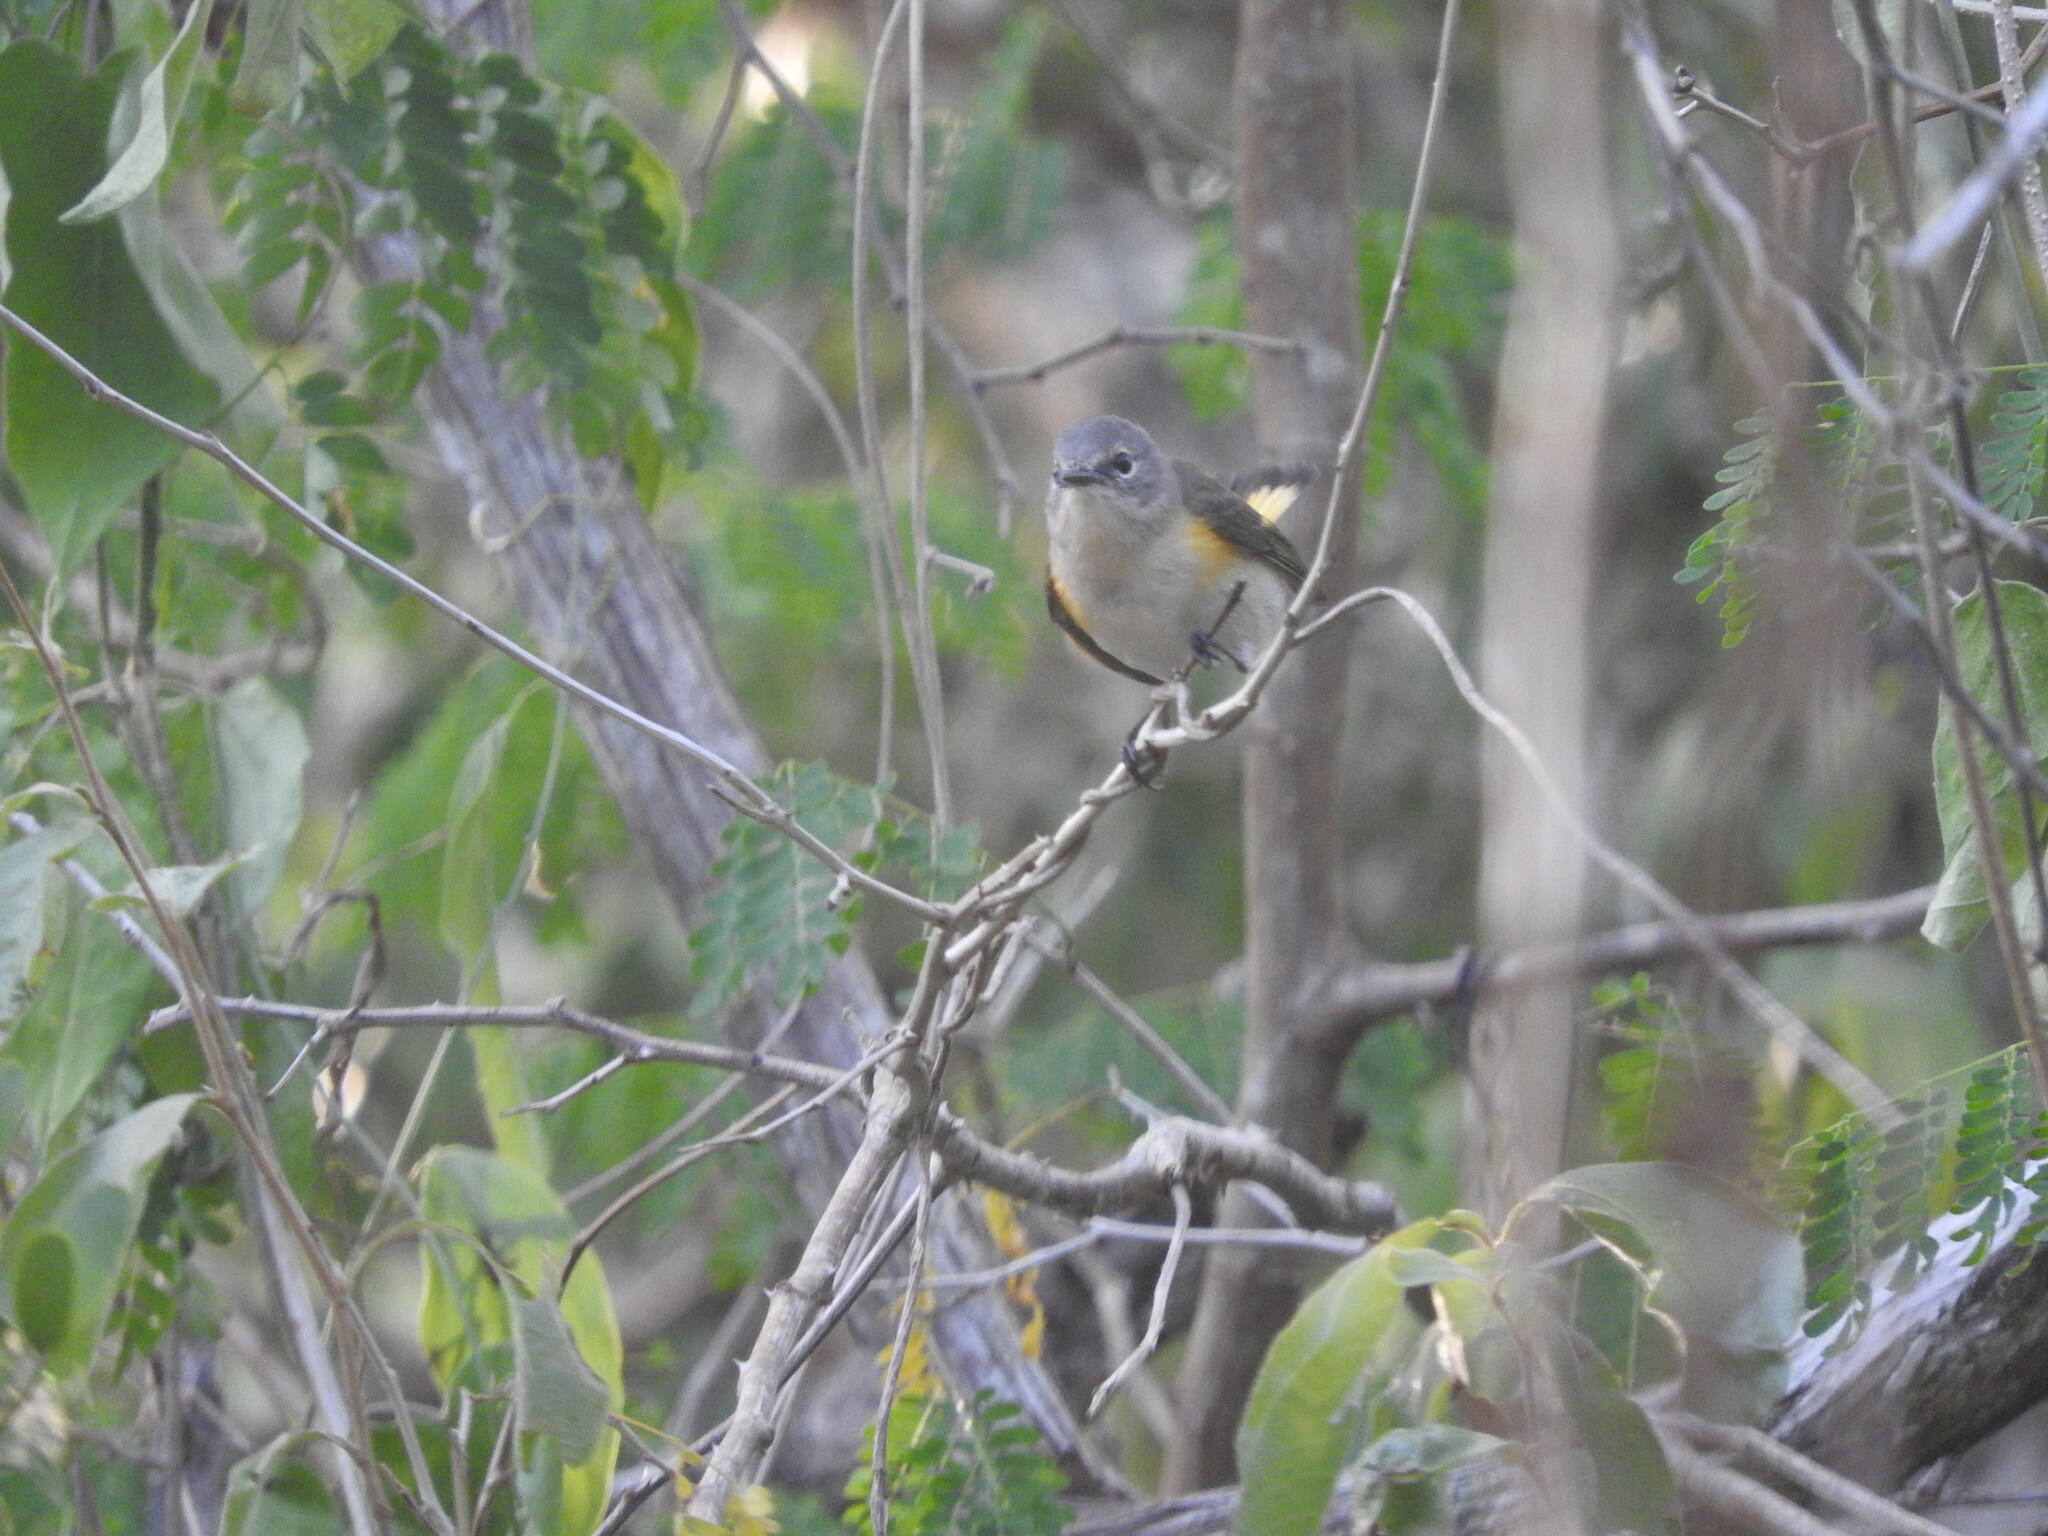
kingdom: Animalia
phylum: Chordata
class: Aves
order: Passeriformes
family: Parulidae
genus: Setophaga
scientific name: Setophaga ruticilla
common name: American redstart
